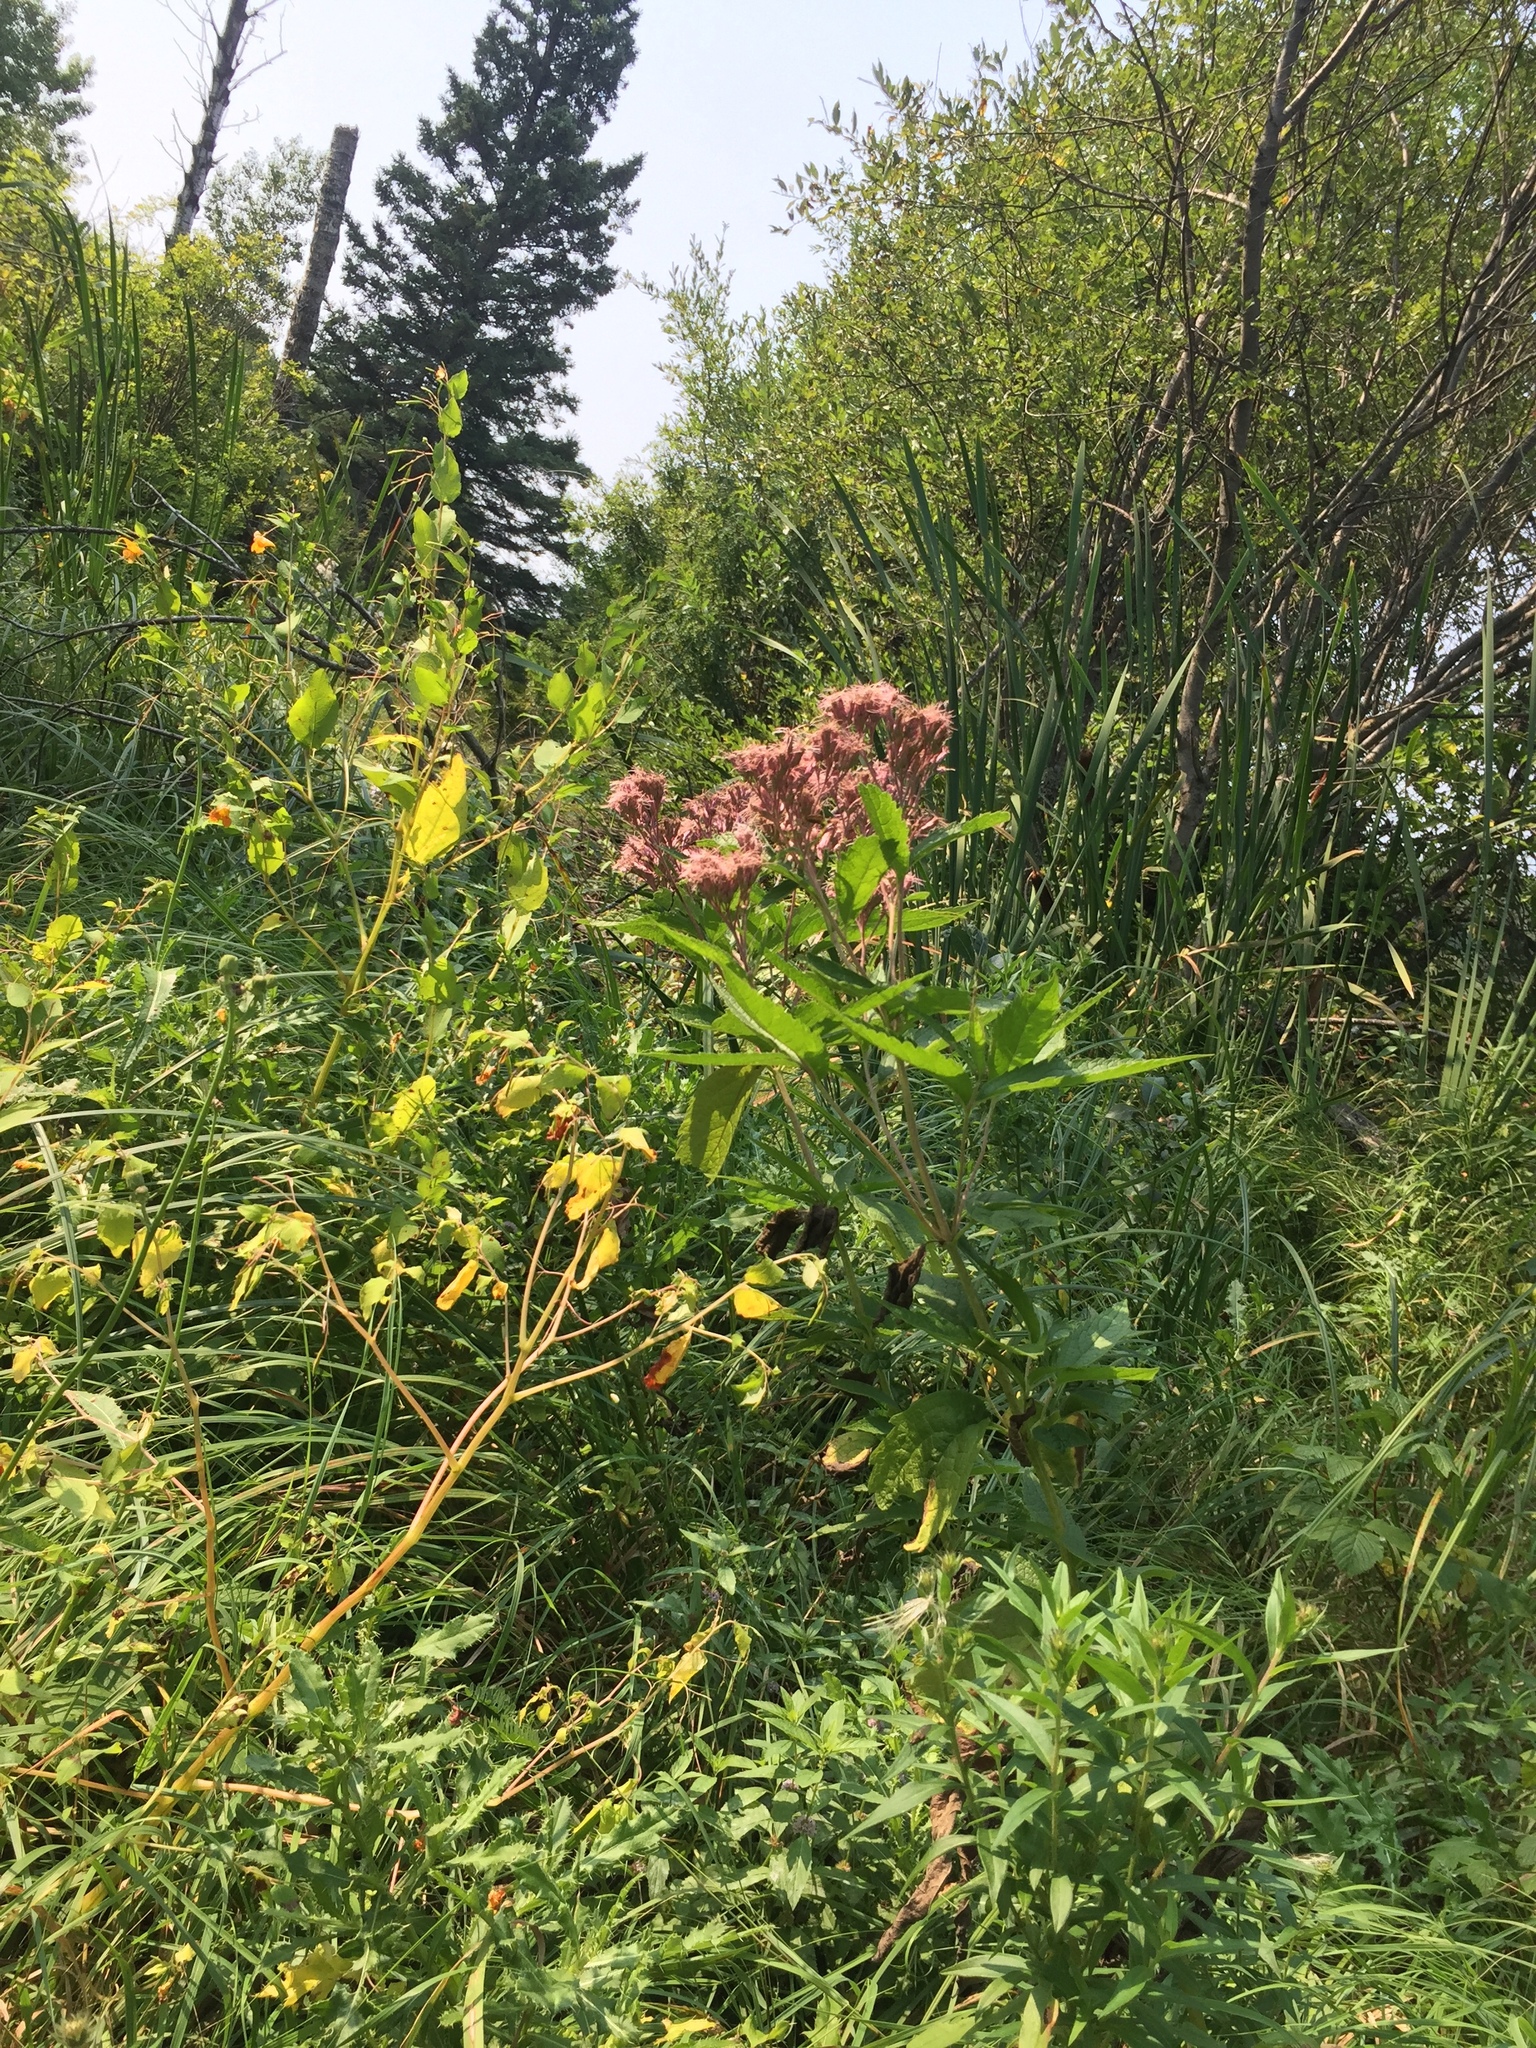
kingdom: Plantae
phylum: Tracheophyta
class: Magnoliopsida
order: Asterales
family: Asteraceae
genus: Eutrochium
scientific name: Eutrochium maculatum
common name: Spotted joe pye weed
